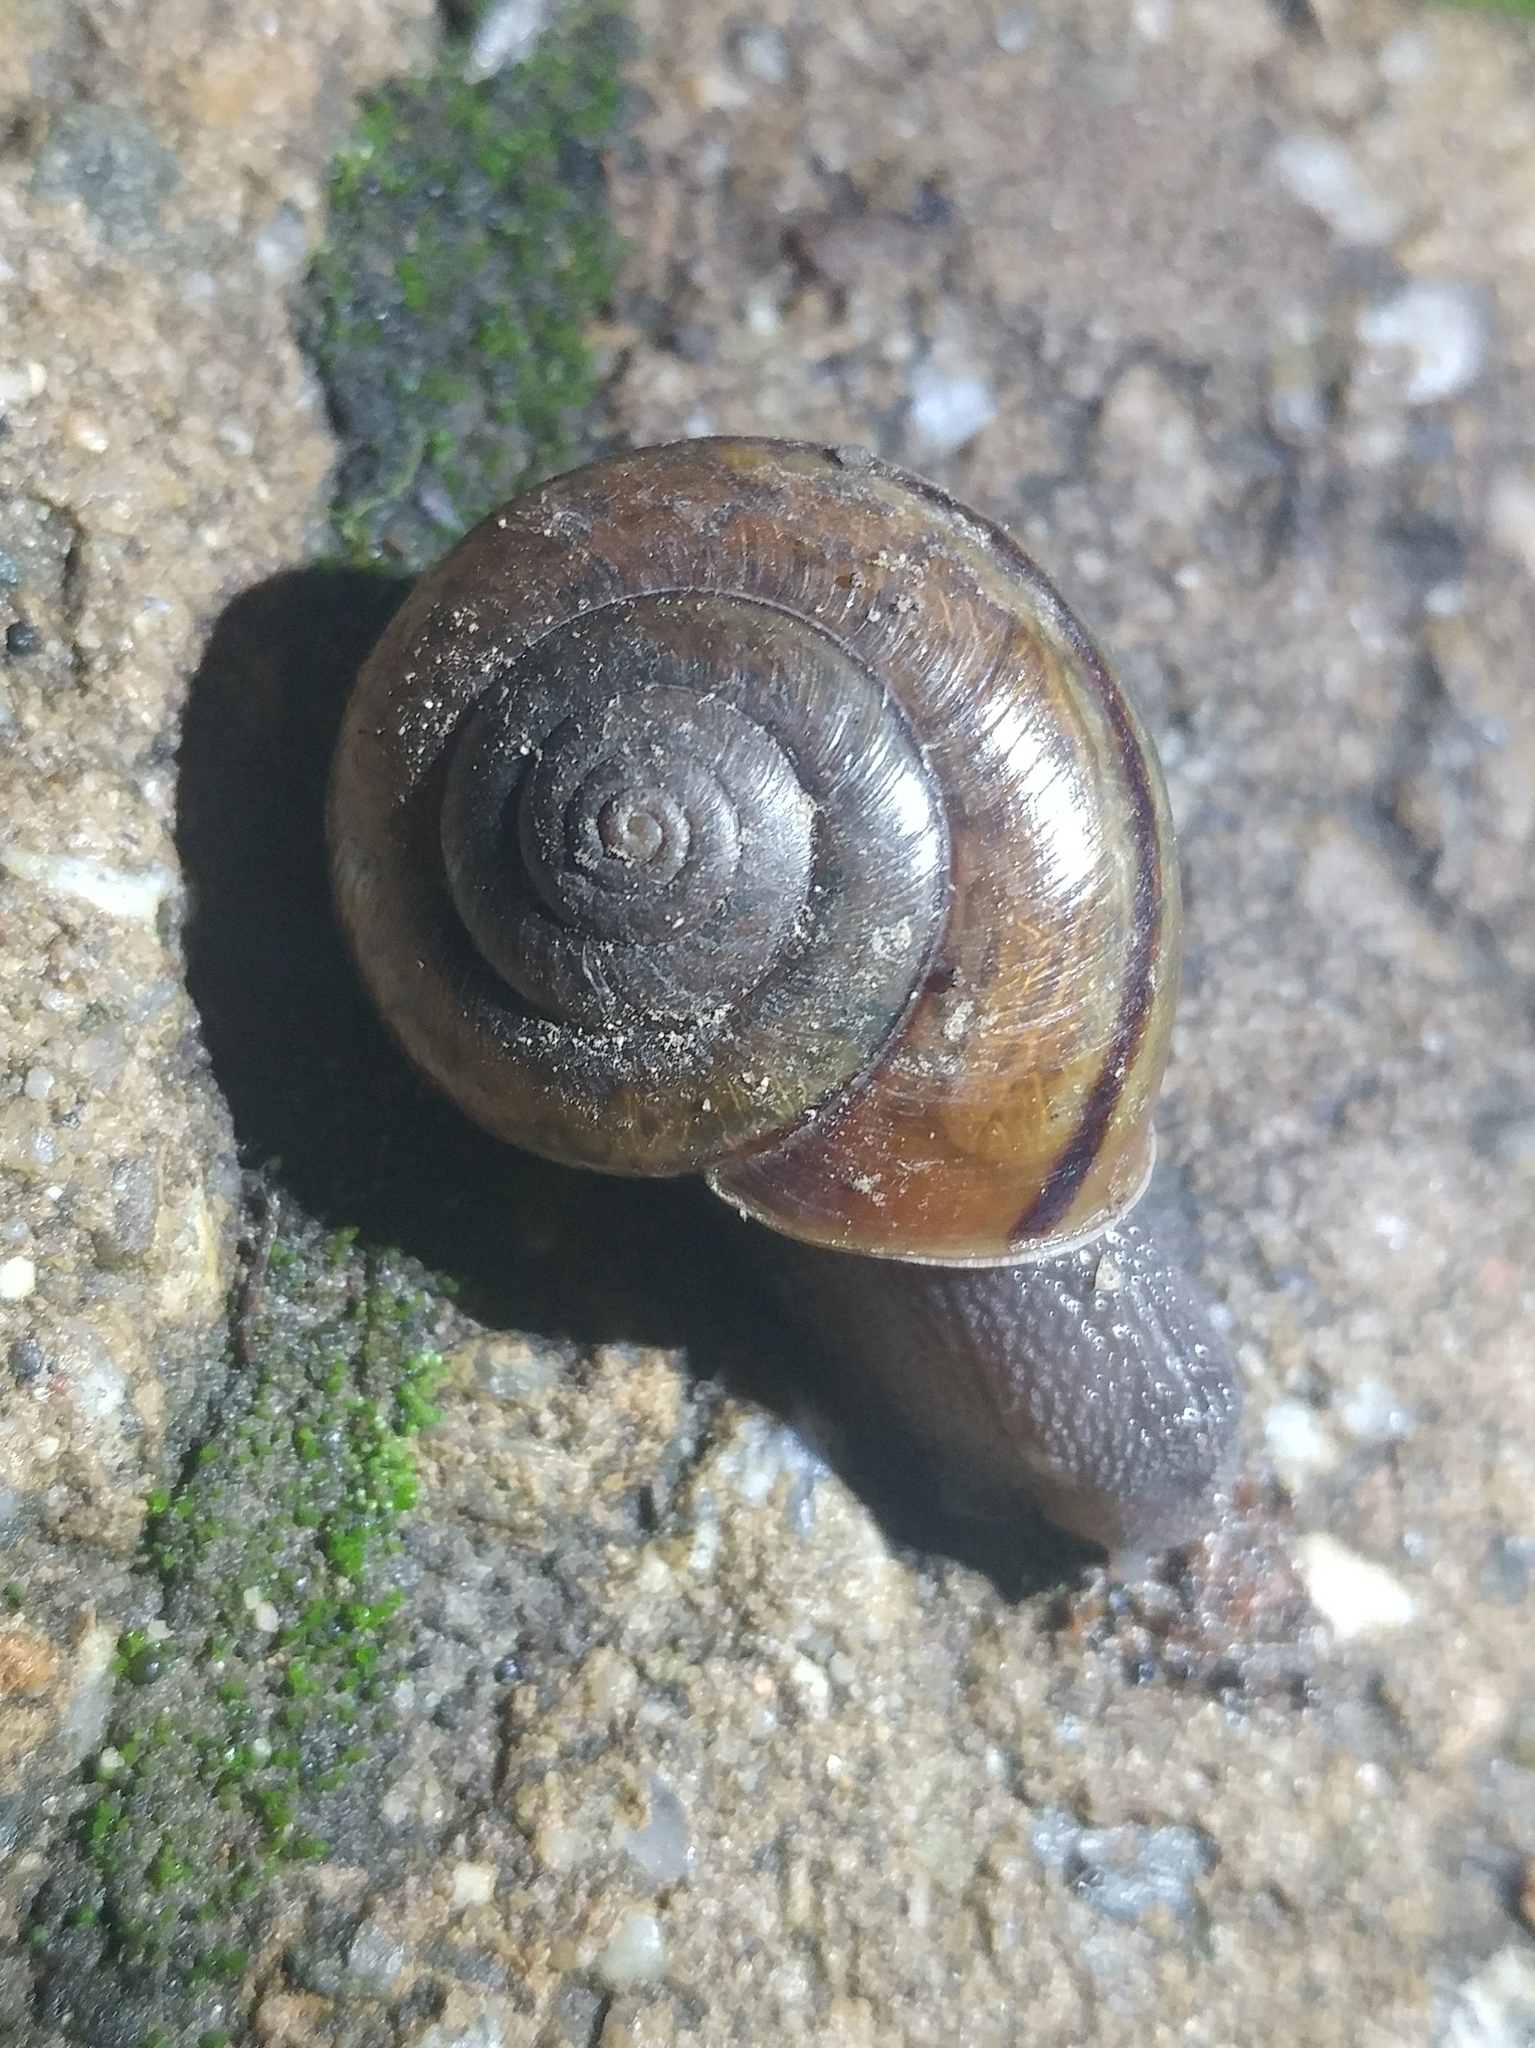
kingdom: Animalia
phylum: Mollusca
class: Gastropoda
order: Stylommatophora
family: Xanthonychidae
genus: Helminthoglypta
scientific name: Helminthoglypta phlyctaena
